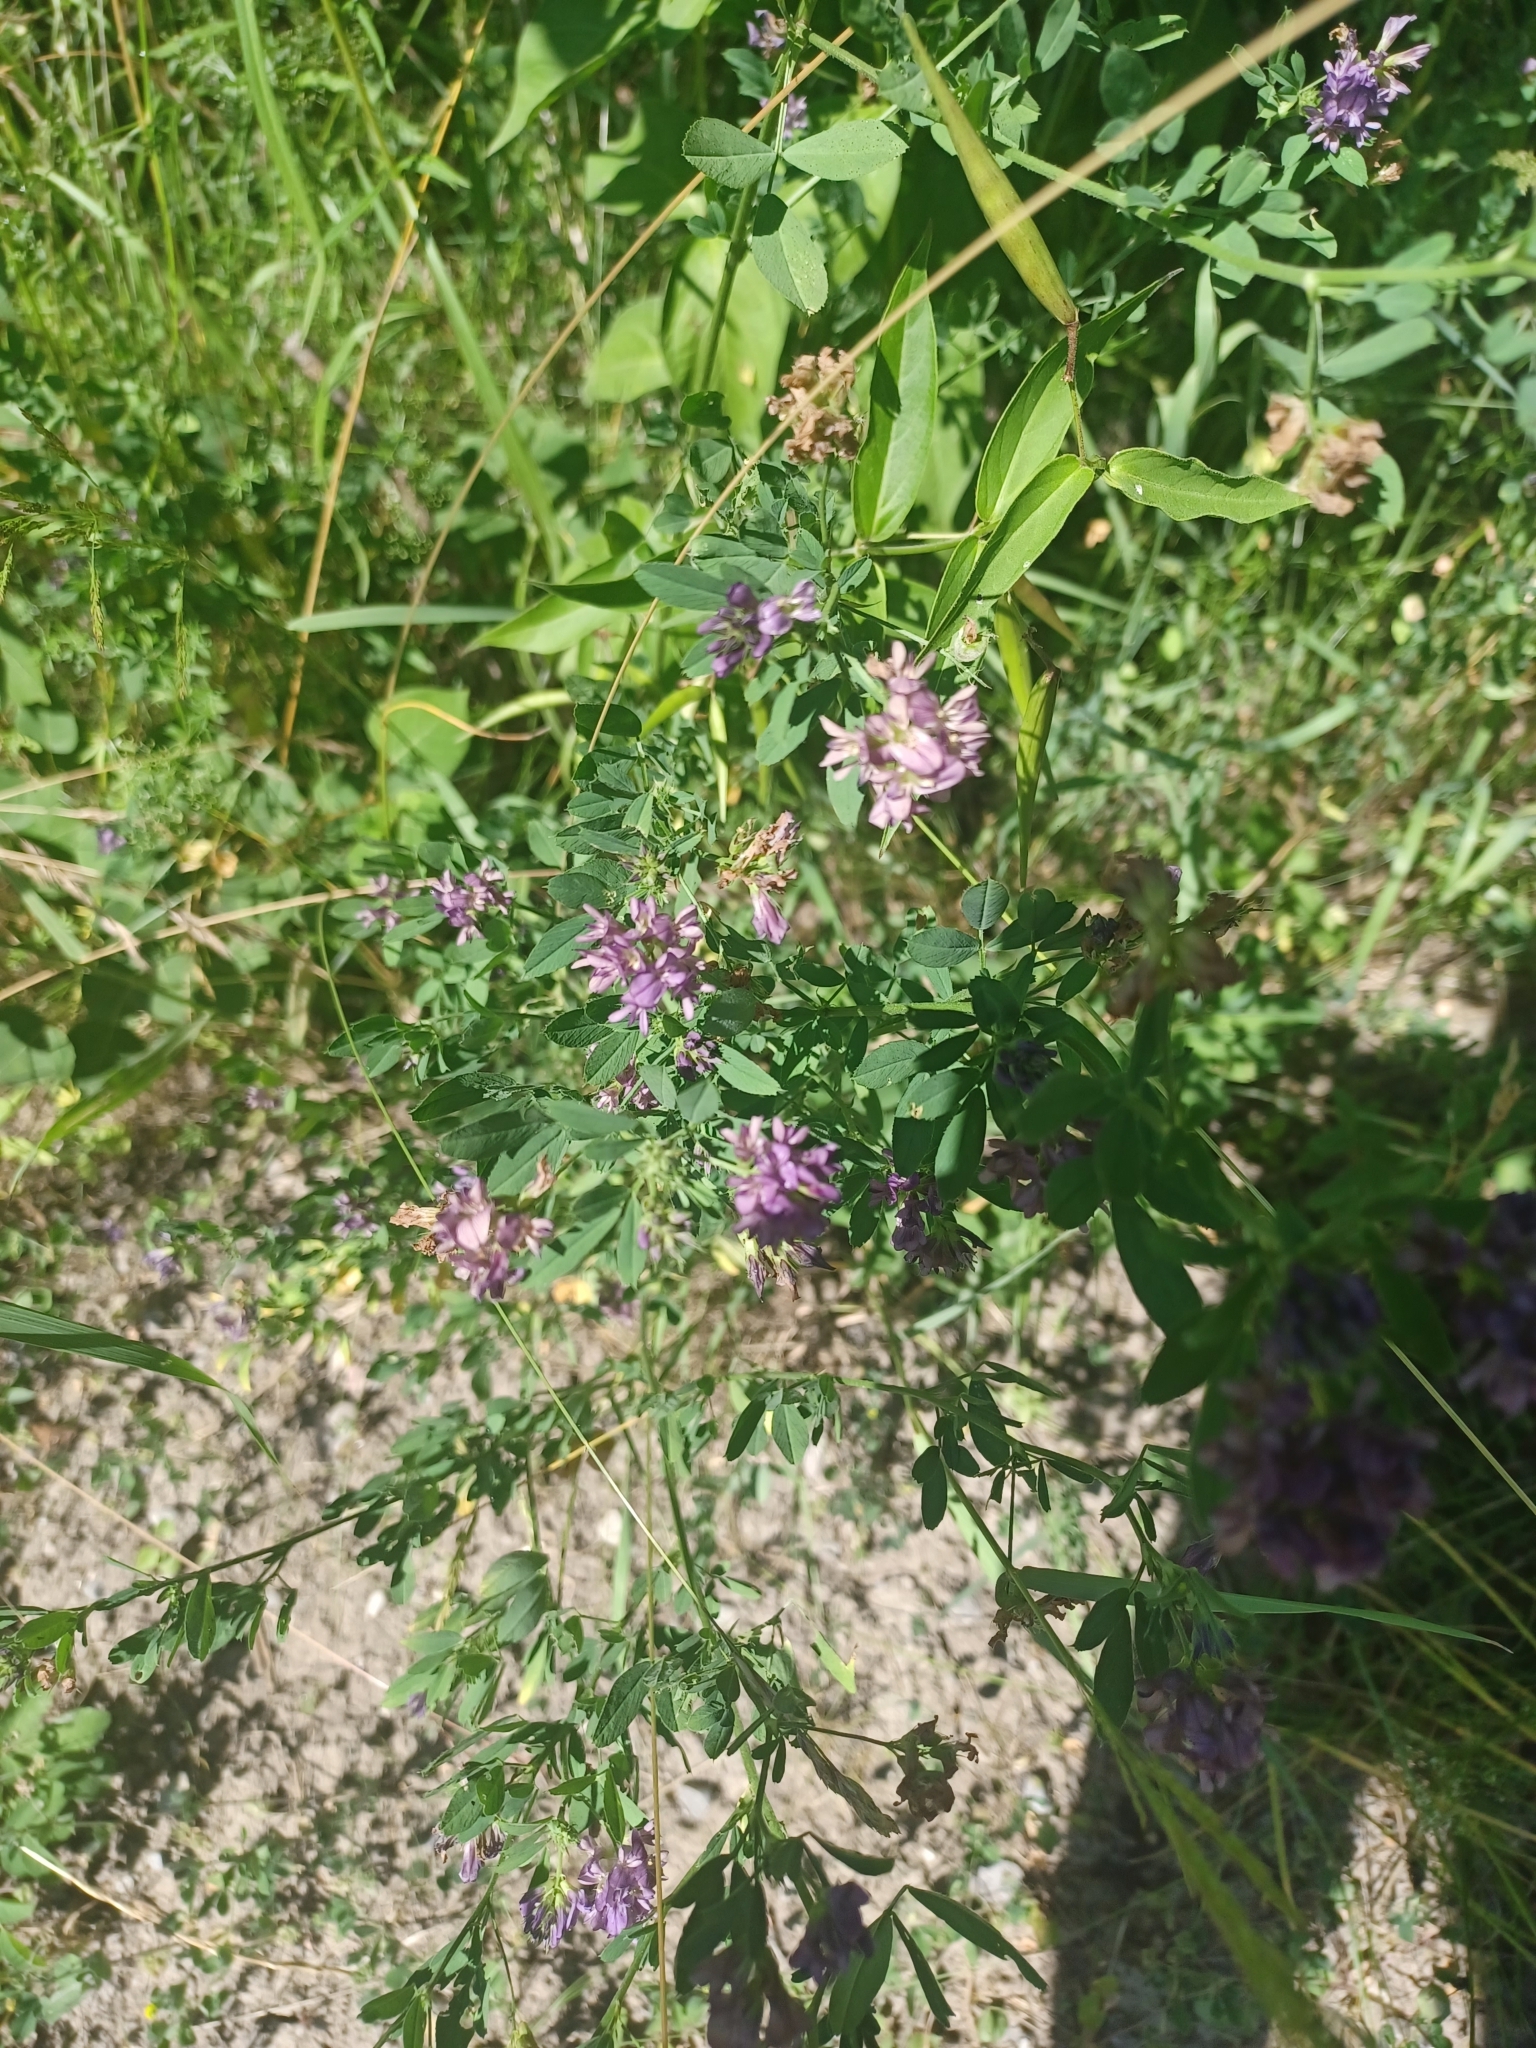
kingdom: Plantae
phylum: Tracheophyta
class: Magnoliopsida
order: Fabales
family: Fabaceae
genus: Medicago
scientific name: Medicago sativa
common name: Alfalfa
